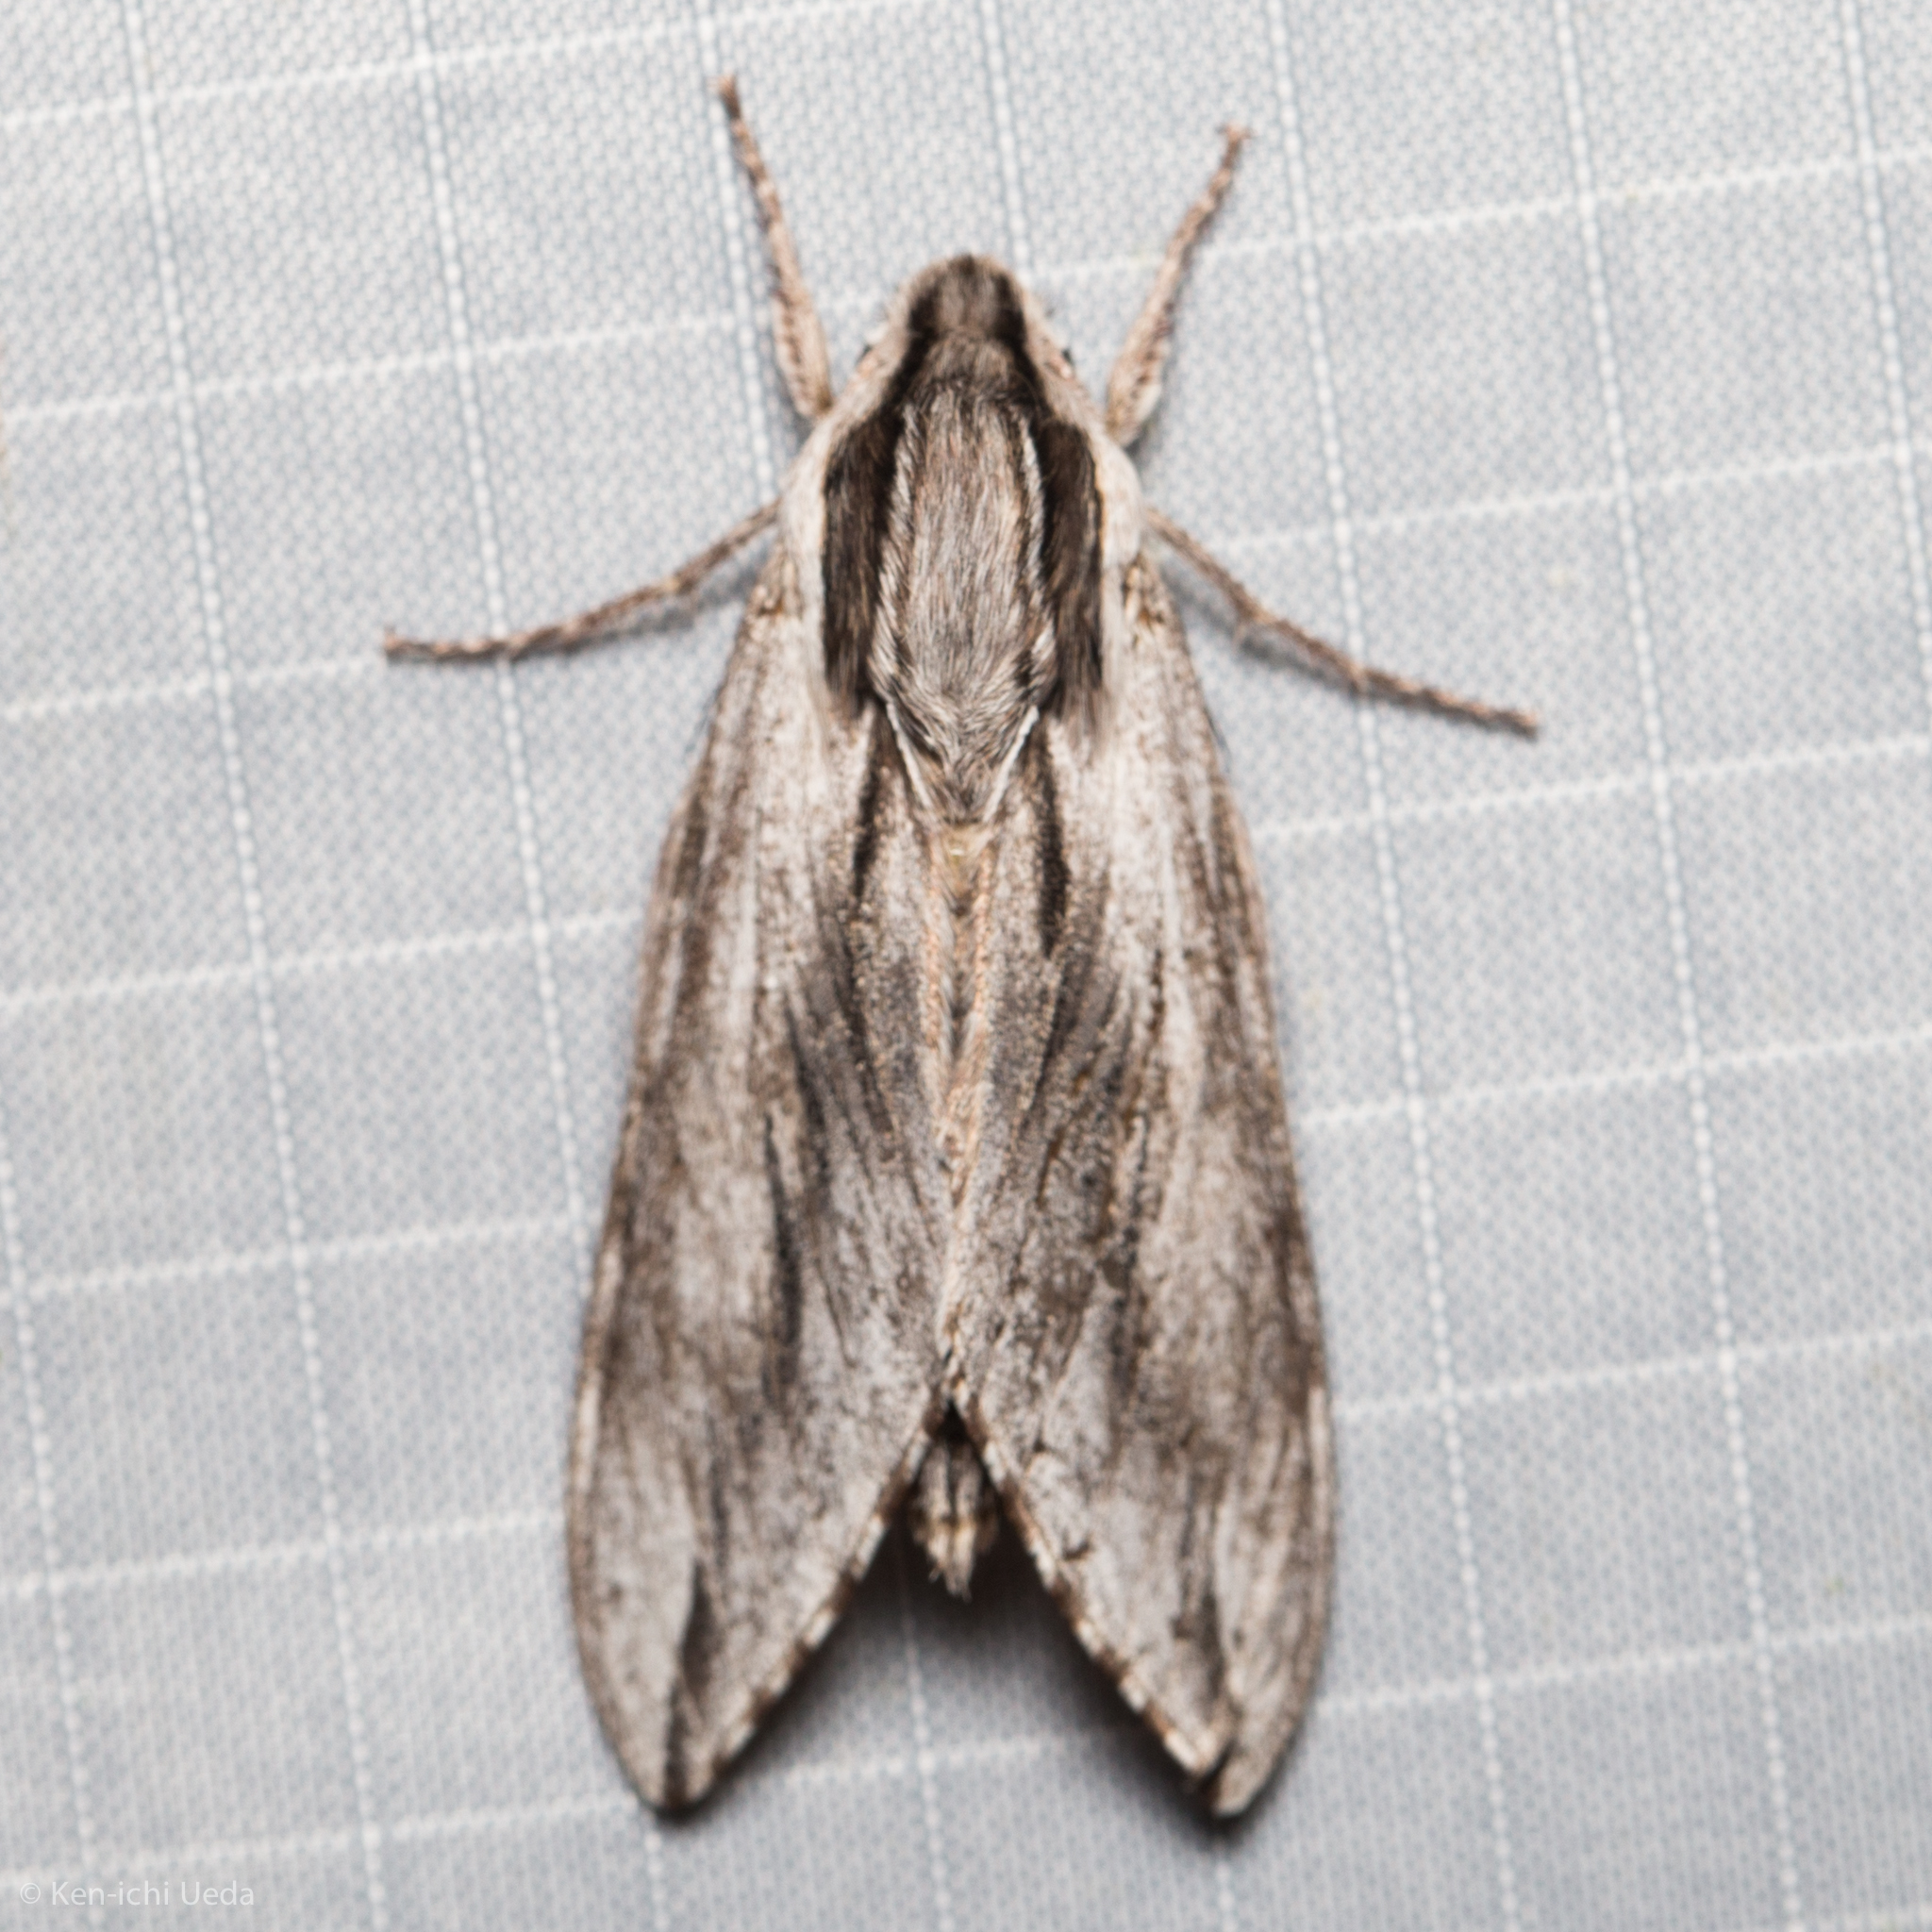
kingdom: Animalia
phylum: Arthropoda
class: Insecta
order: Lepidoptera
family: Sphingidae
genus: Sphinx
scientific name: Sphinx dollii
